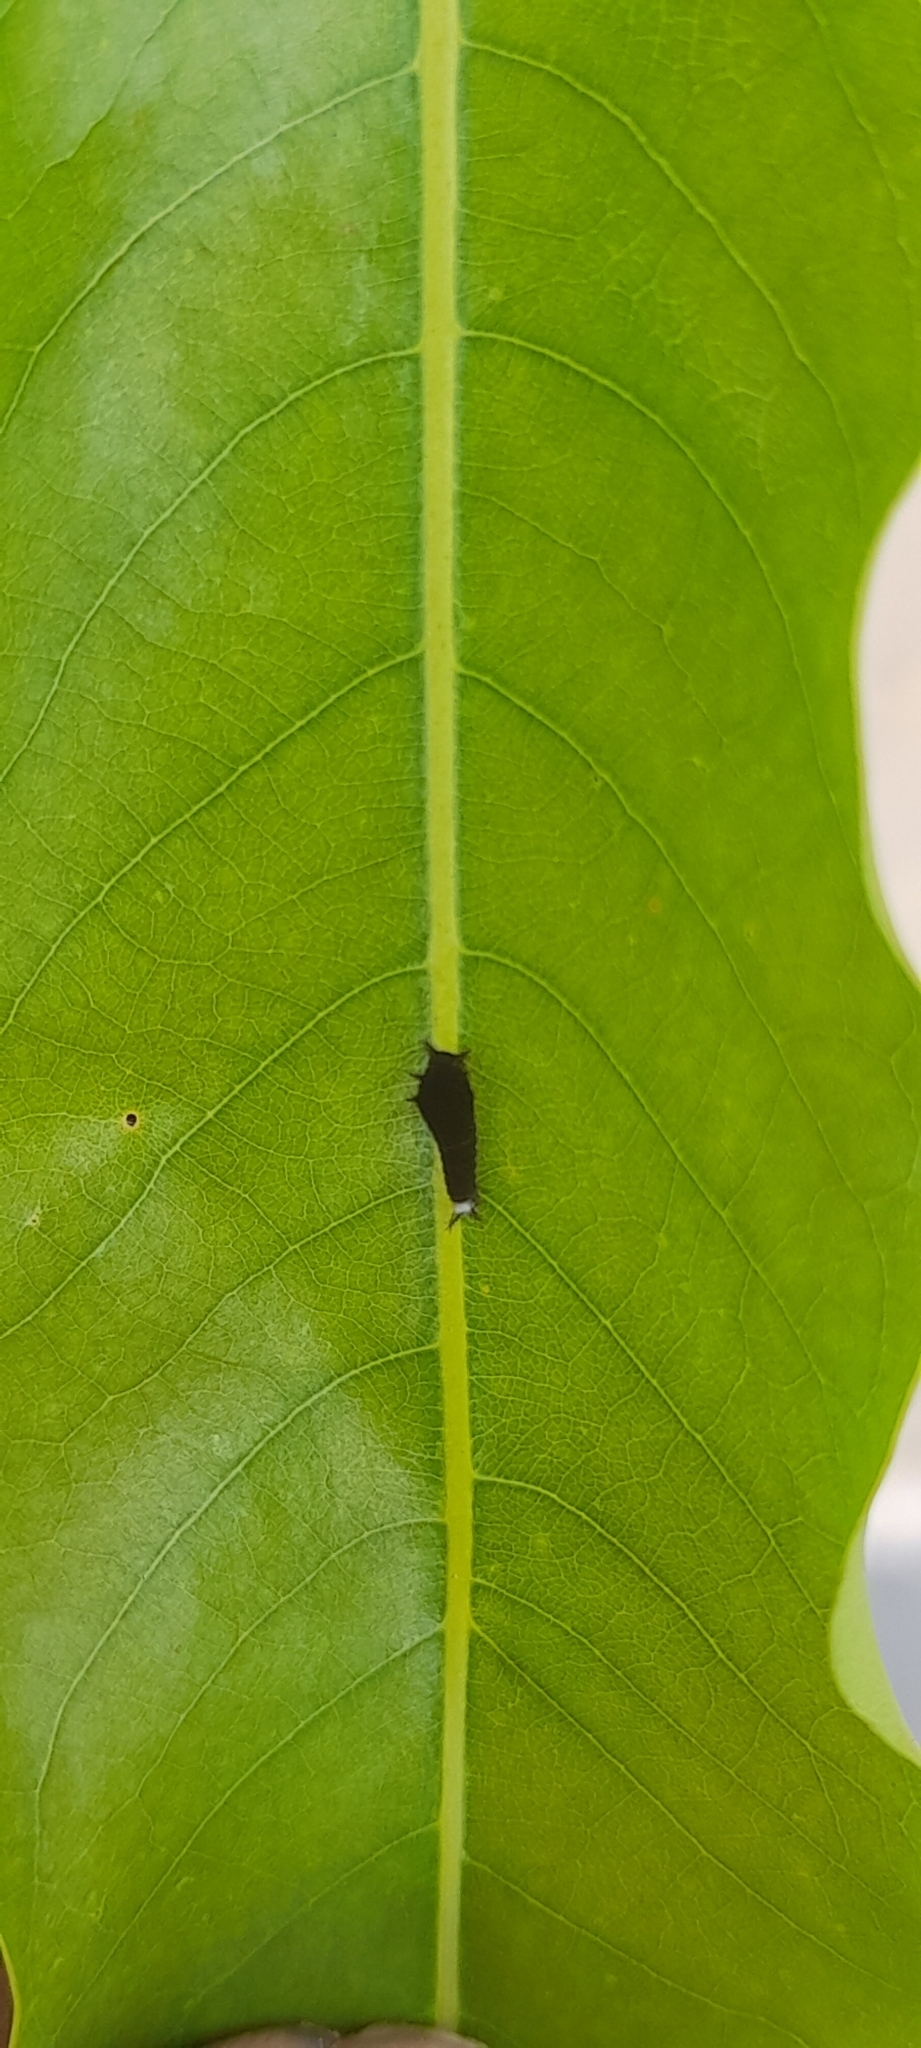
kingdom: Animalia
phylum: Arthropoda
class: Insecta
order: Lepidoptera
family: Papilionidae
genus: Graphium
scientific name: Graphium doson
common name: Common jay
